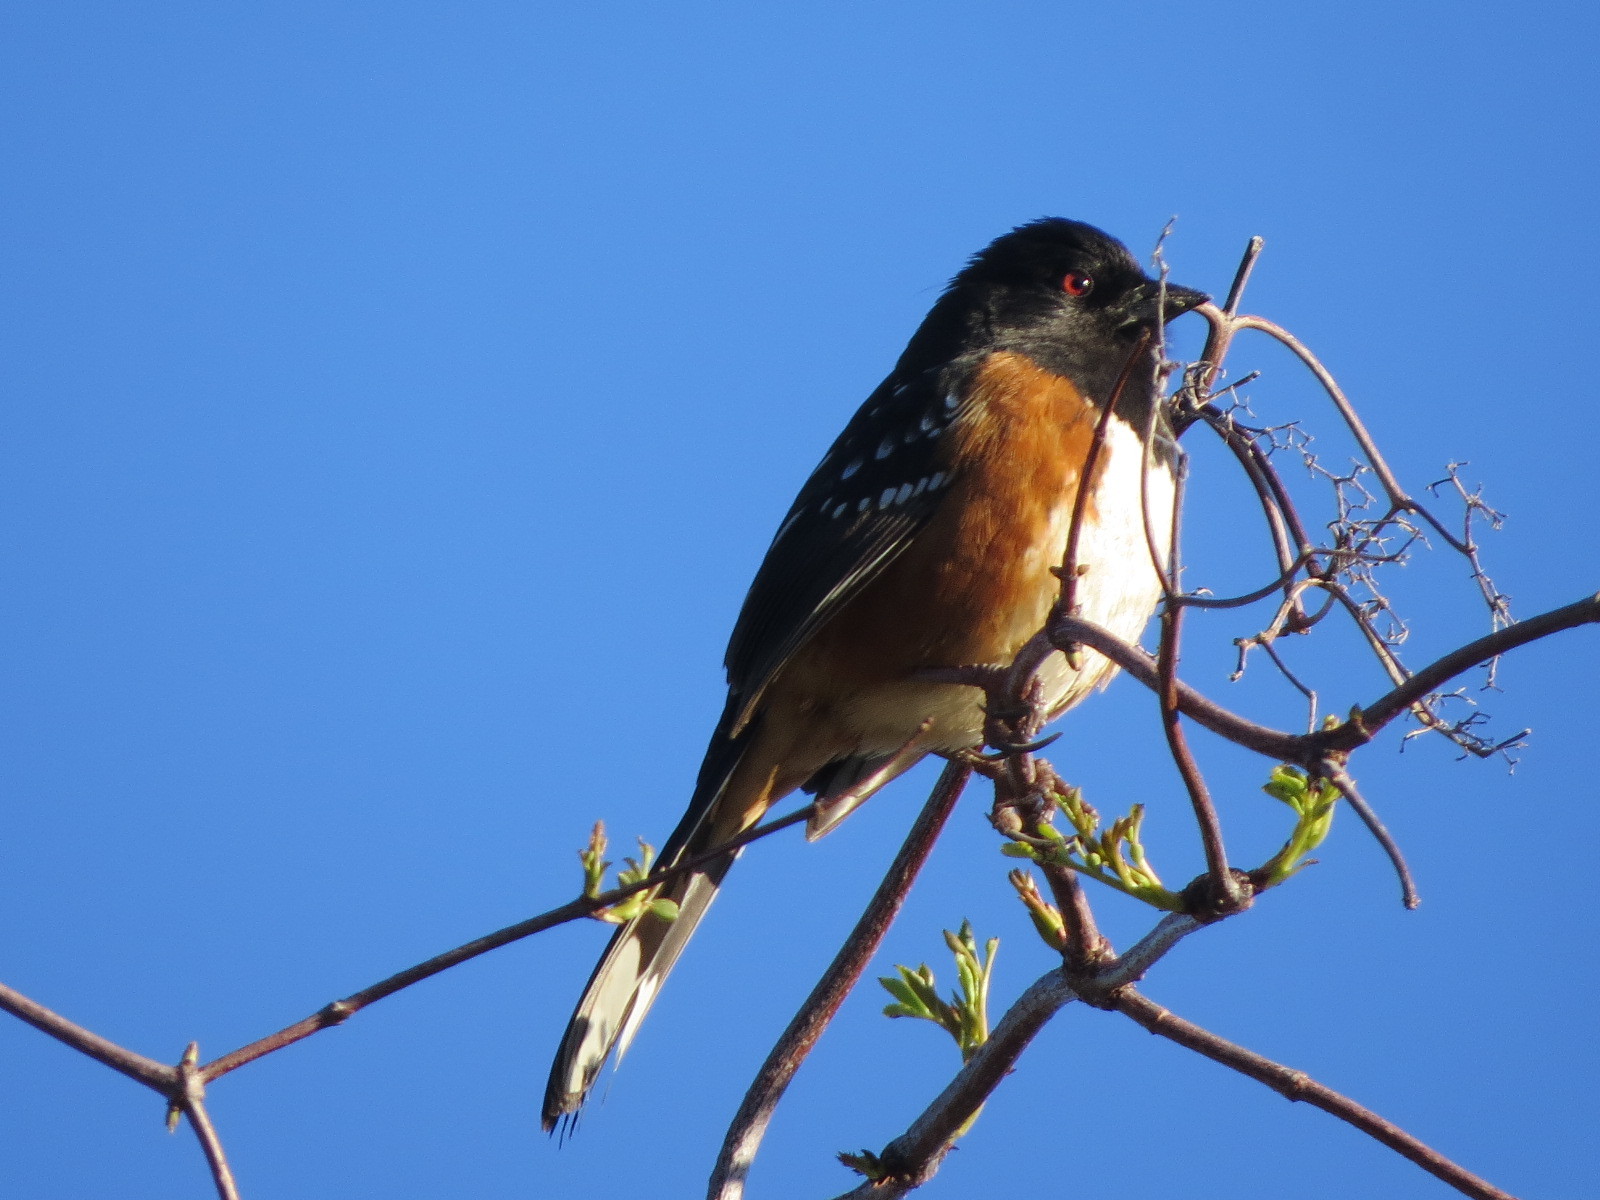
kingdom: Animalia
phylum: Chordata
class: Aves
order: Passeriformes
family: Passerellidae
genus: Pipilo
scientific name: Pipilo maculatus
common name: Spotted towhee
